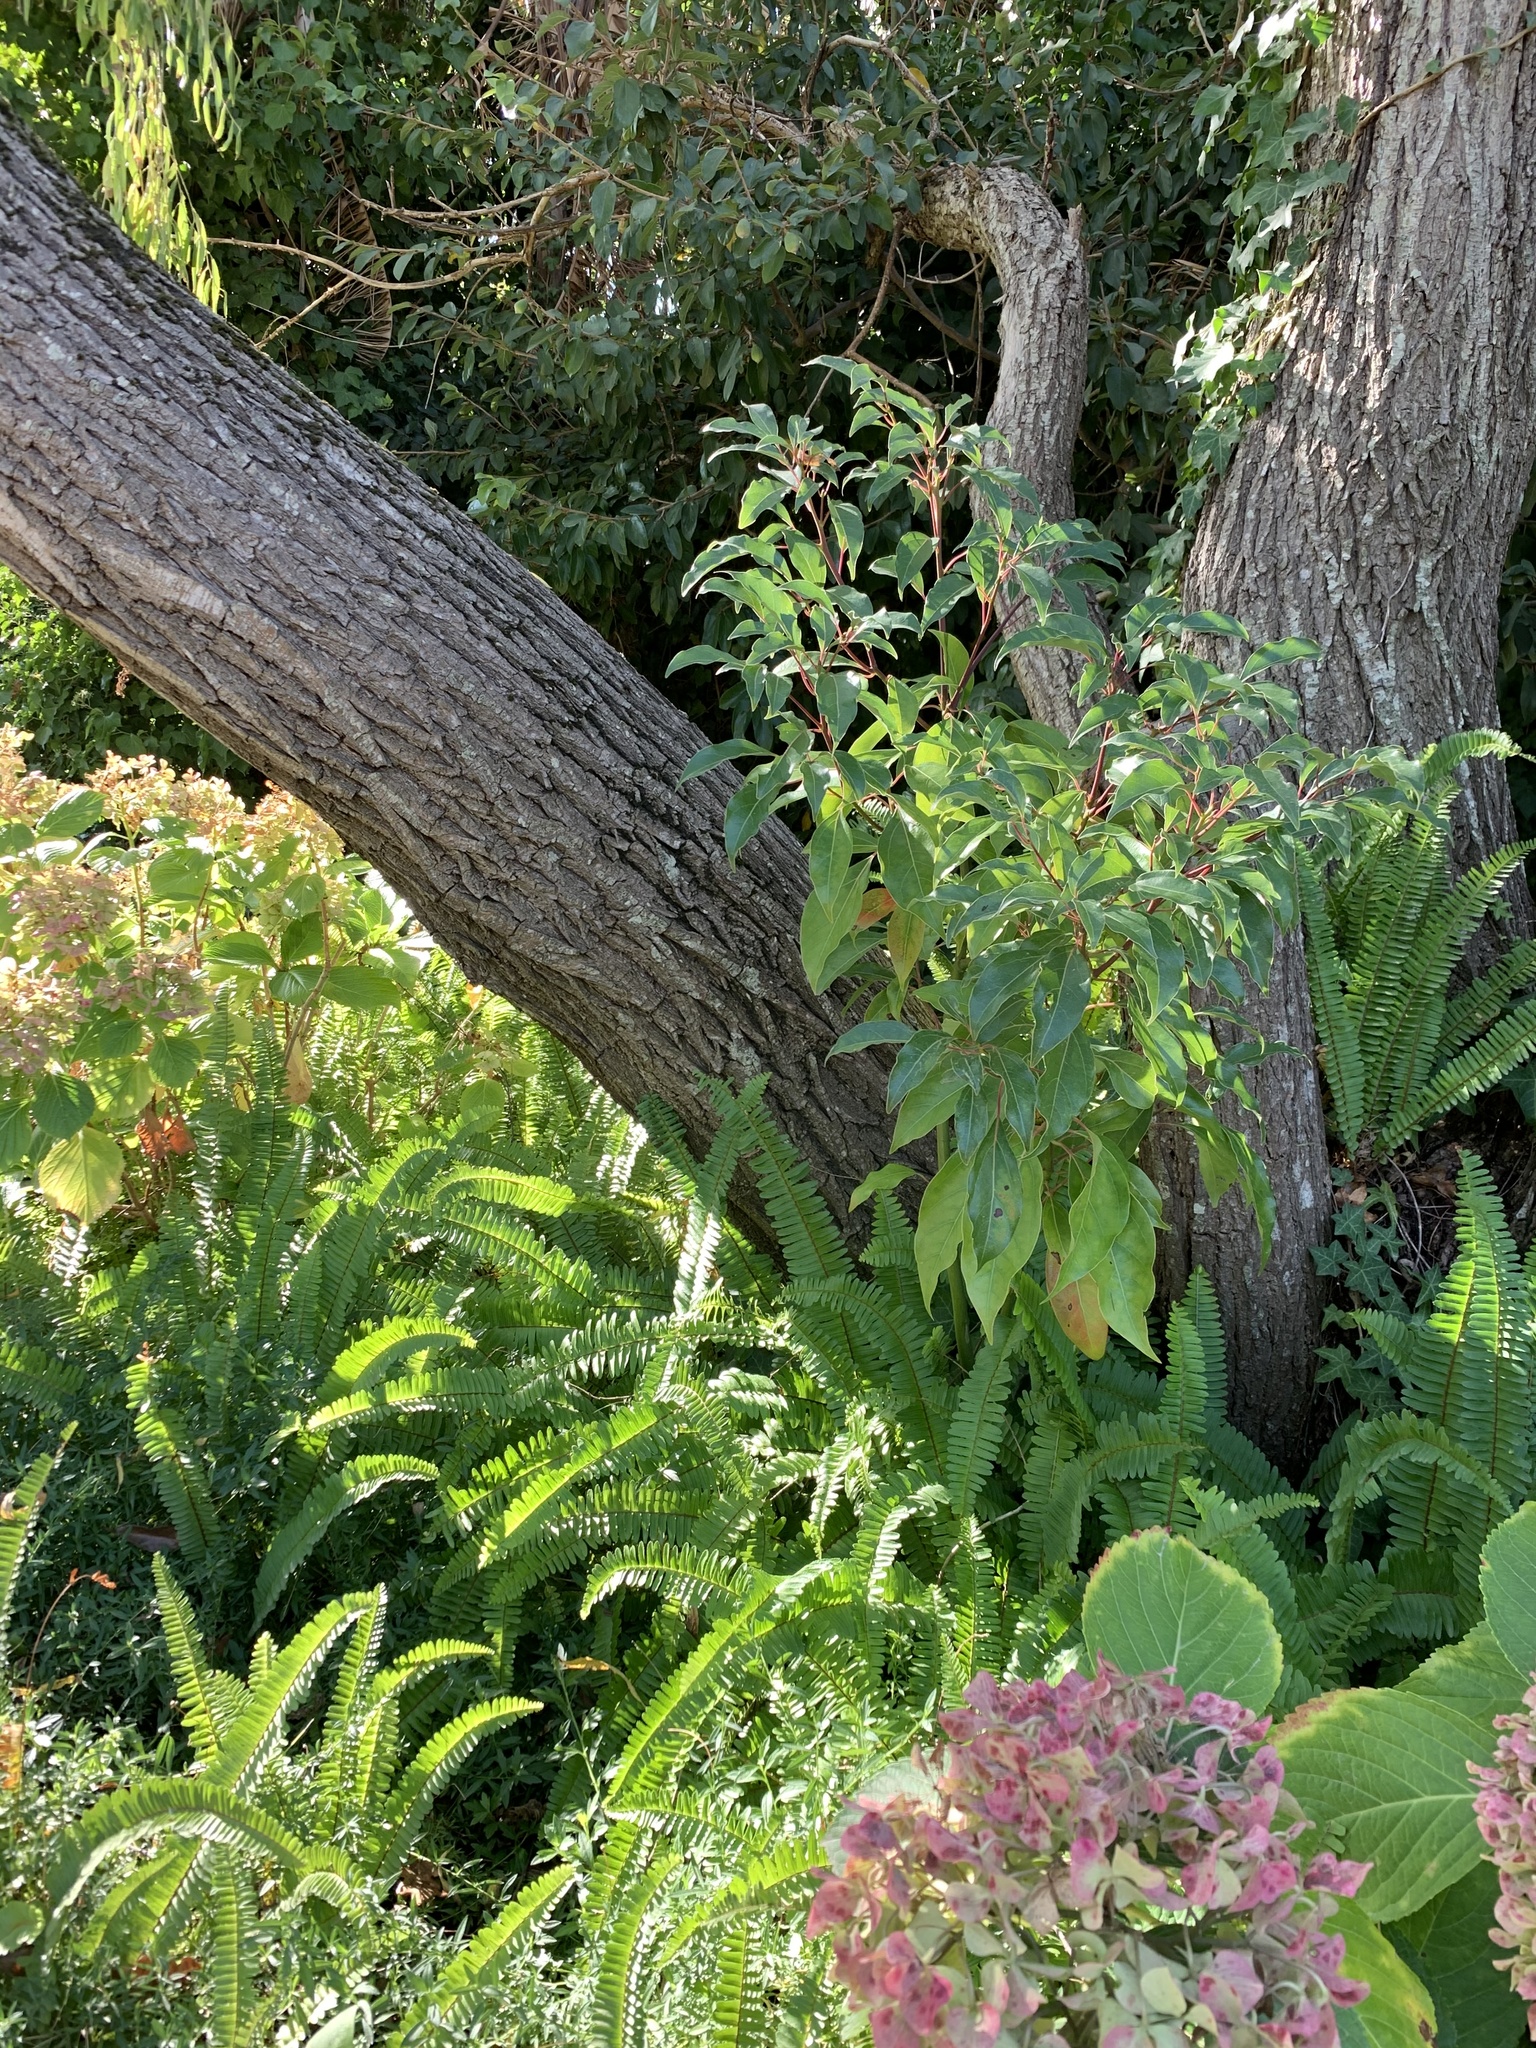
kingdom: Plantae
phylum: Tracheophyta
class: Magnoliopsida
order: Laurales
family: Lauraceae
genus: Cinnamomum
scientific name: Cinnamomum camphora
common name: Camphortree
